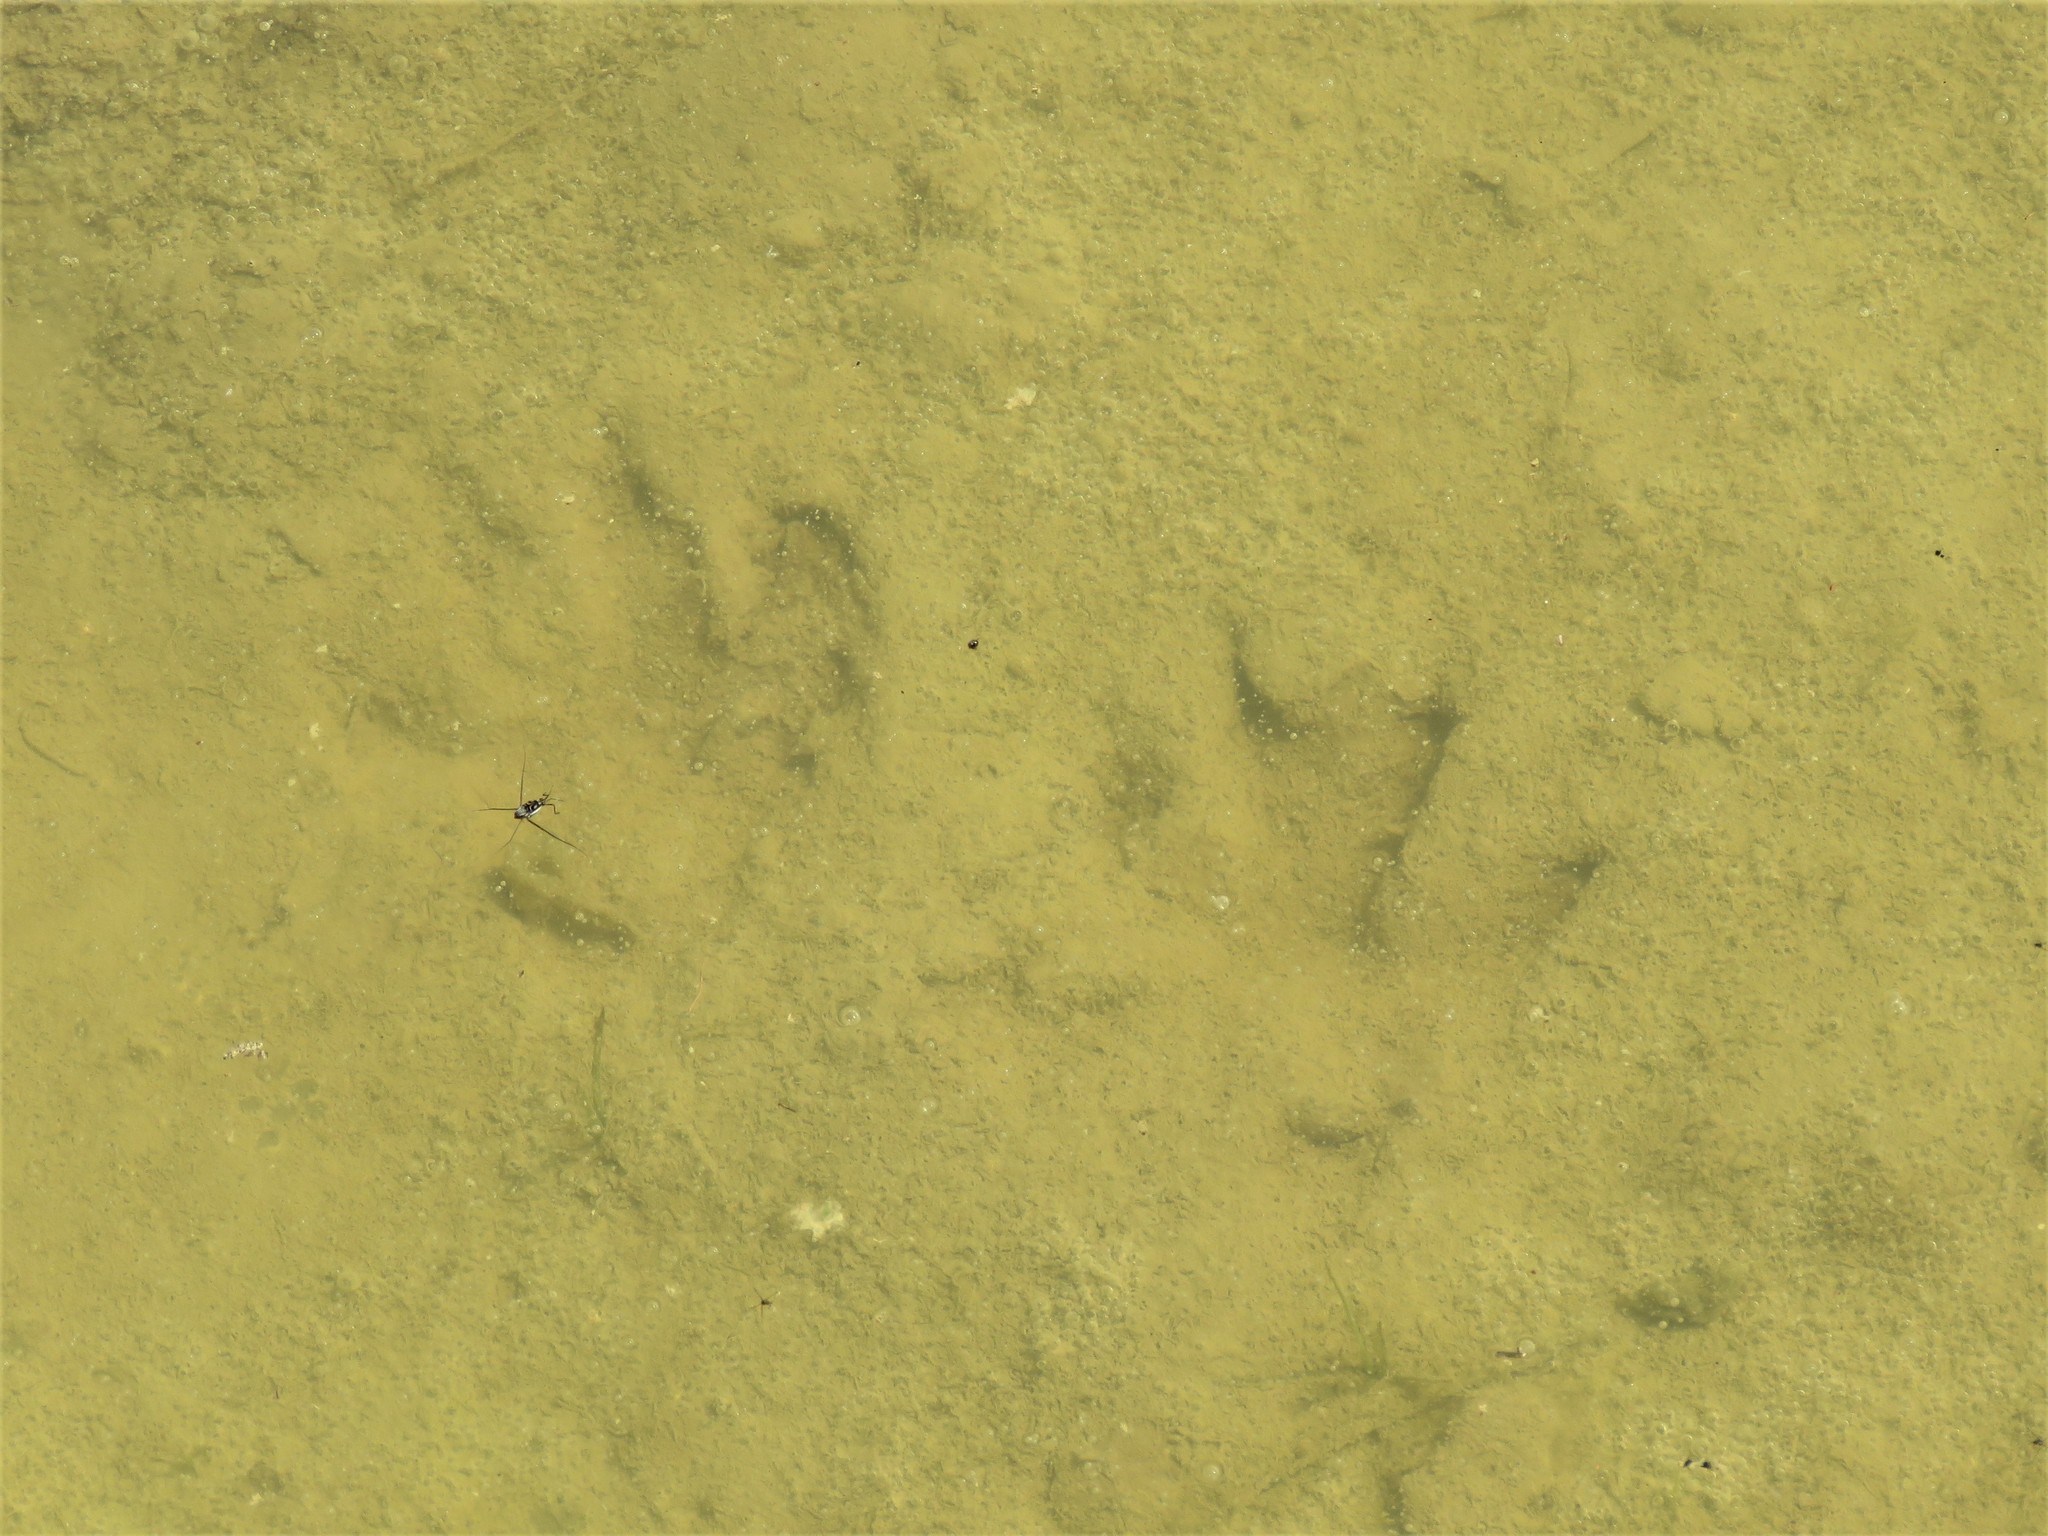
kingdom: Animalia
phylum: Chordata
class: Mammalia
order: Carnivora
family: Procyonidae
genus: Procyon
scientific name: Procyon lotor
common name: Raccoon
